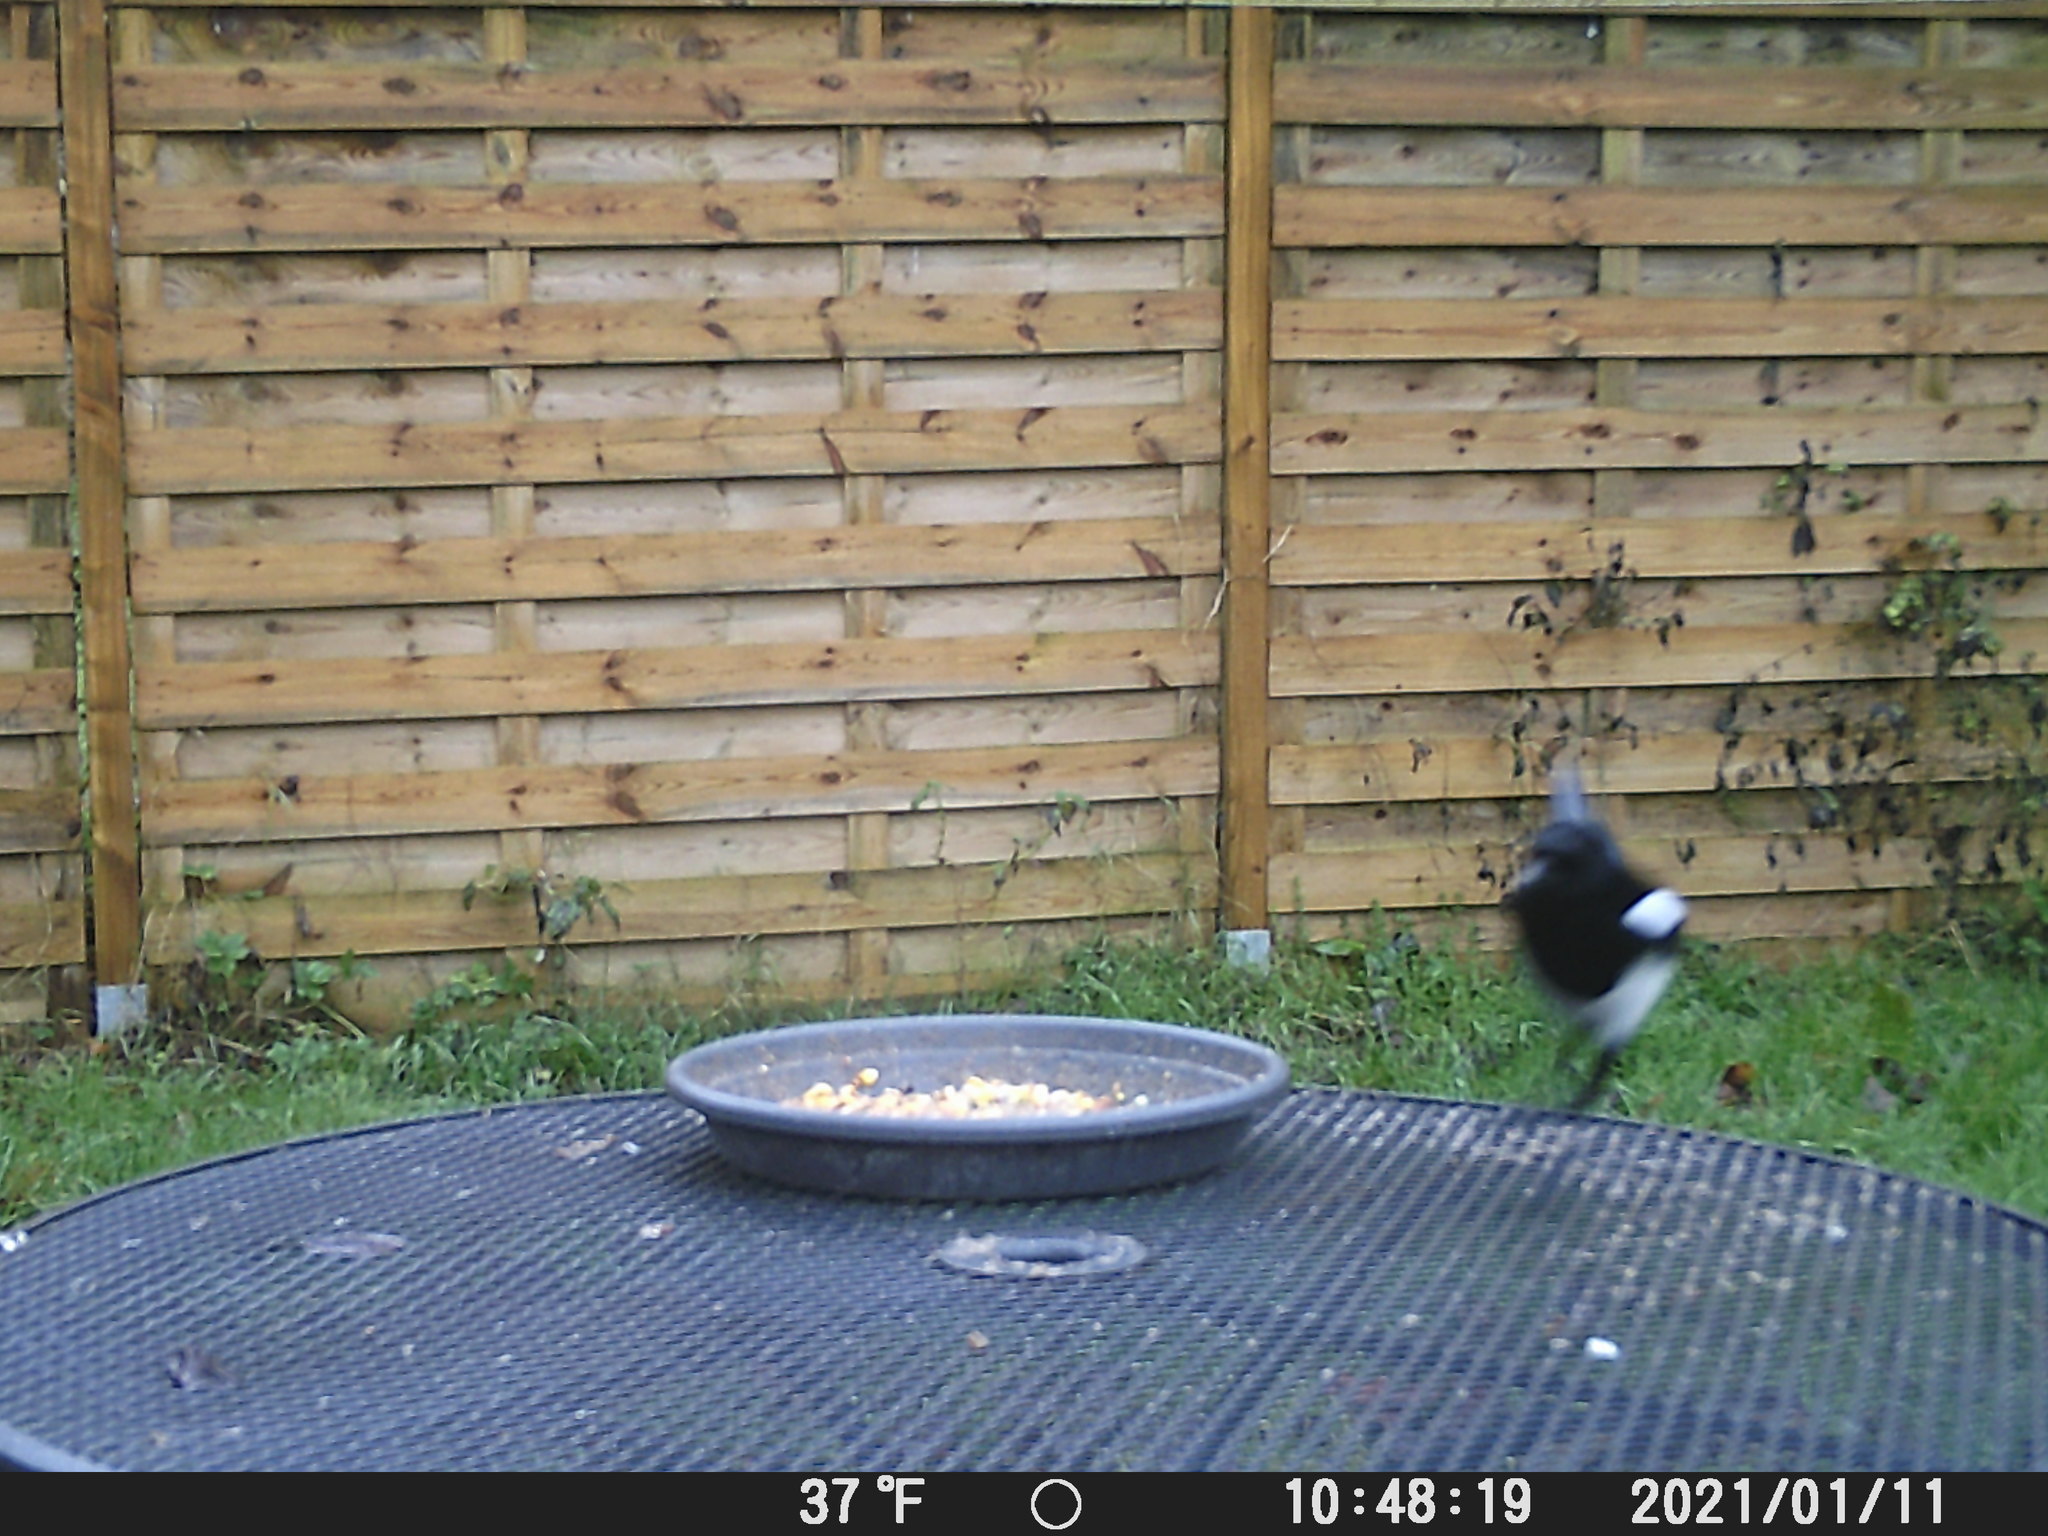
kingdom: Animalia
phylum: Chordata
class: Aves
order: Passeriformes
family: Corvidae
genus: Pica
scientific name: Pica pica
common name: Eurasian magpie
